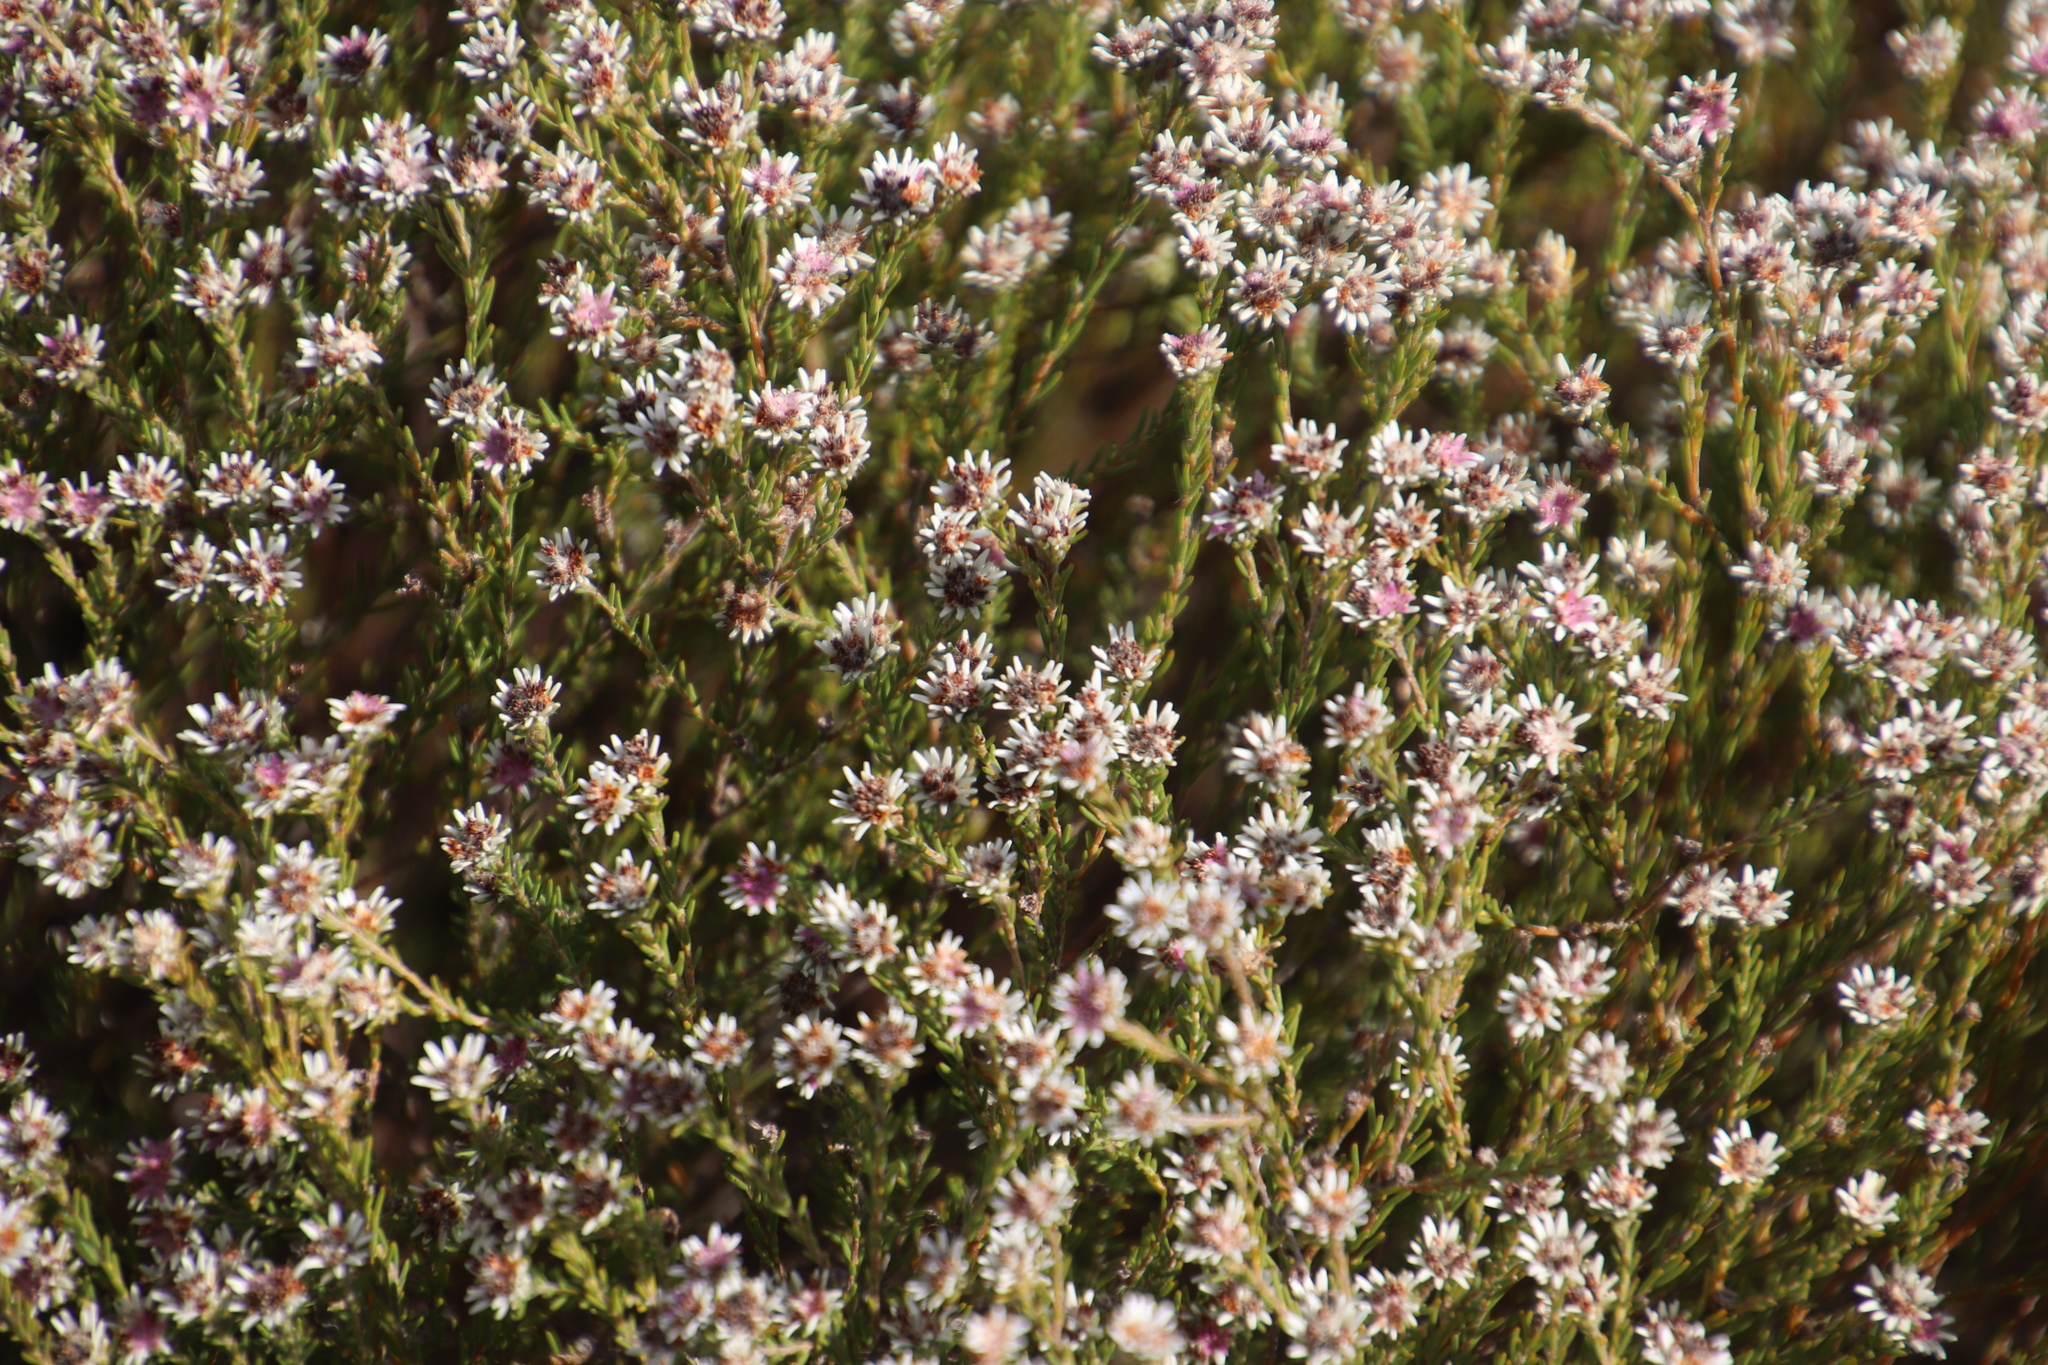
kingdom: Plantae
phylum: Tracheophyta
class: Magnoliopsida
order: Bruniales
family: Bruniaceae
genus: Staavia
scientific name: Staavia radiata
